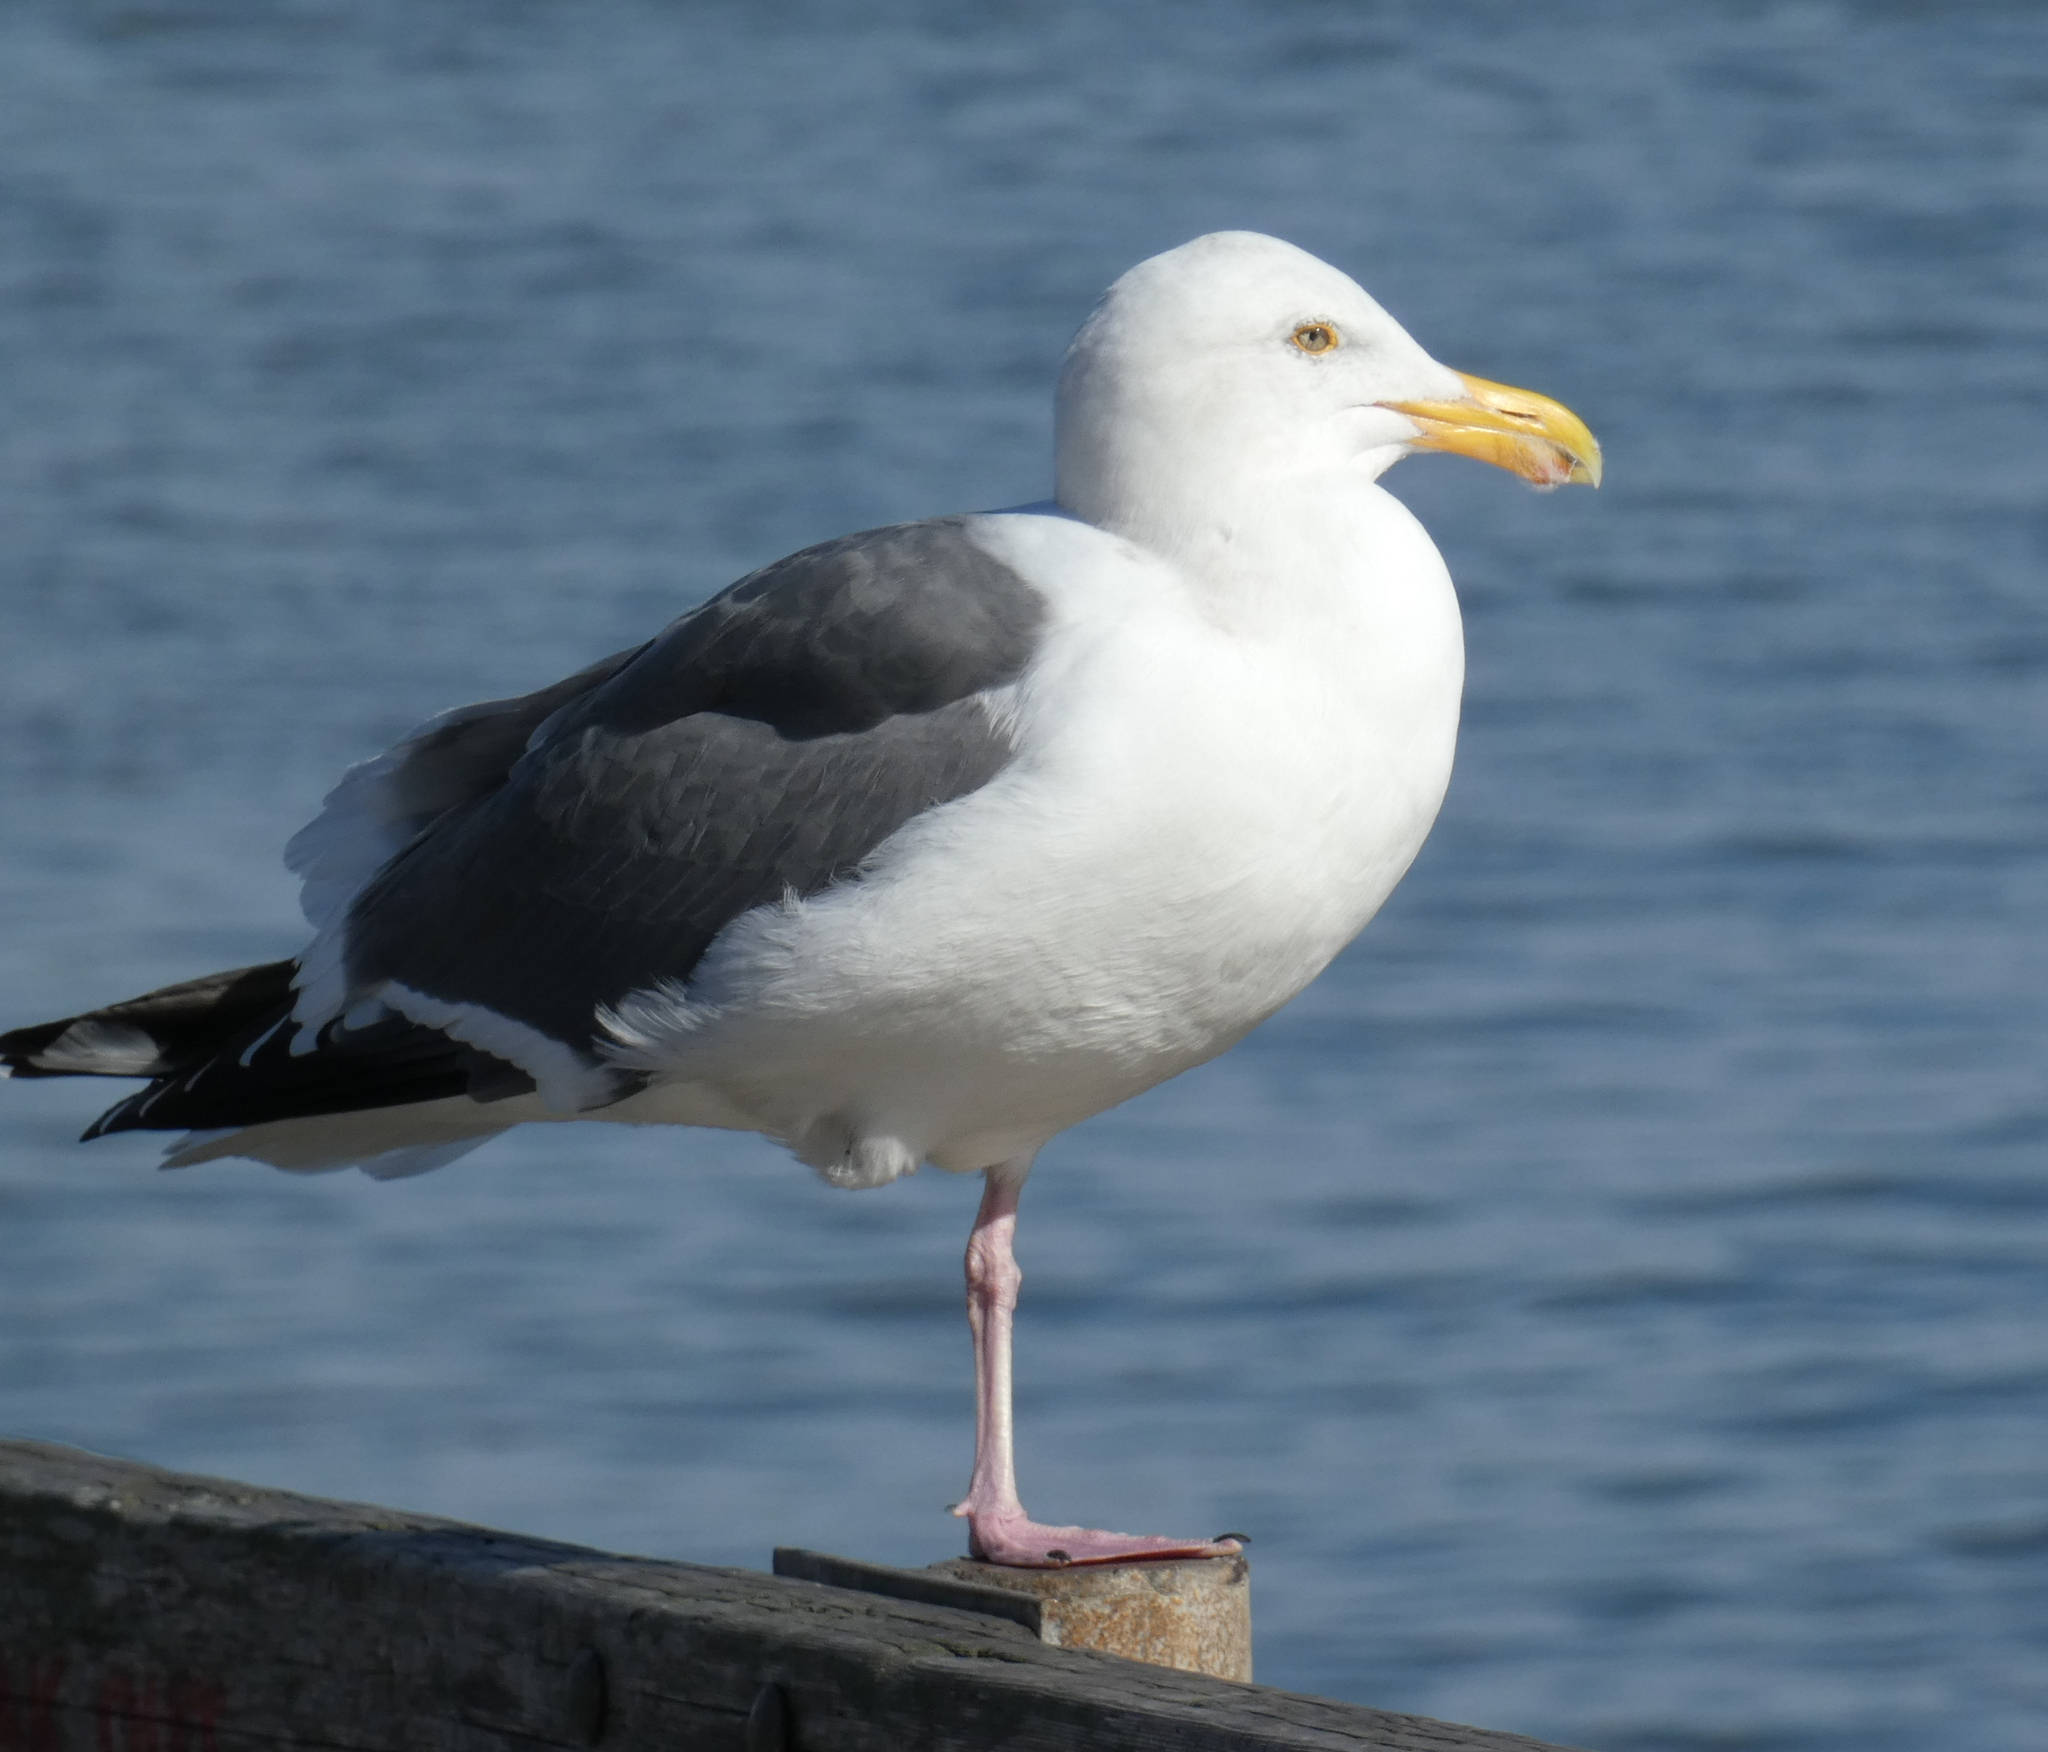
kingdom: Animalia
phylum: Chordata
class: Aves
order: Charadriiformes
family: Laridae
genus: Larus
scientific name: Larus occidentalis
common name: Western gull
